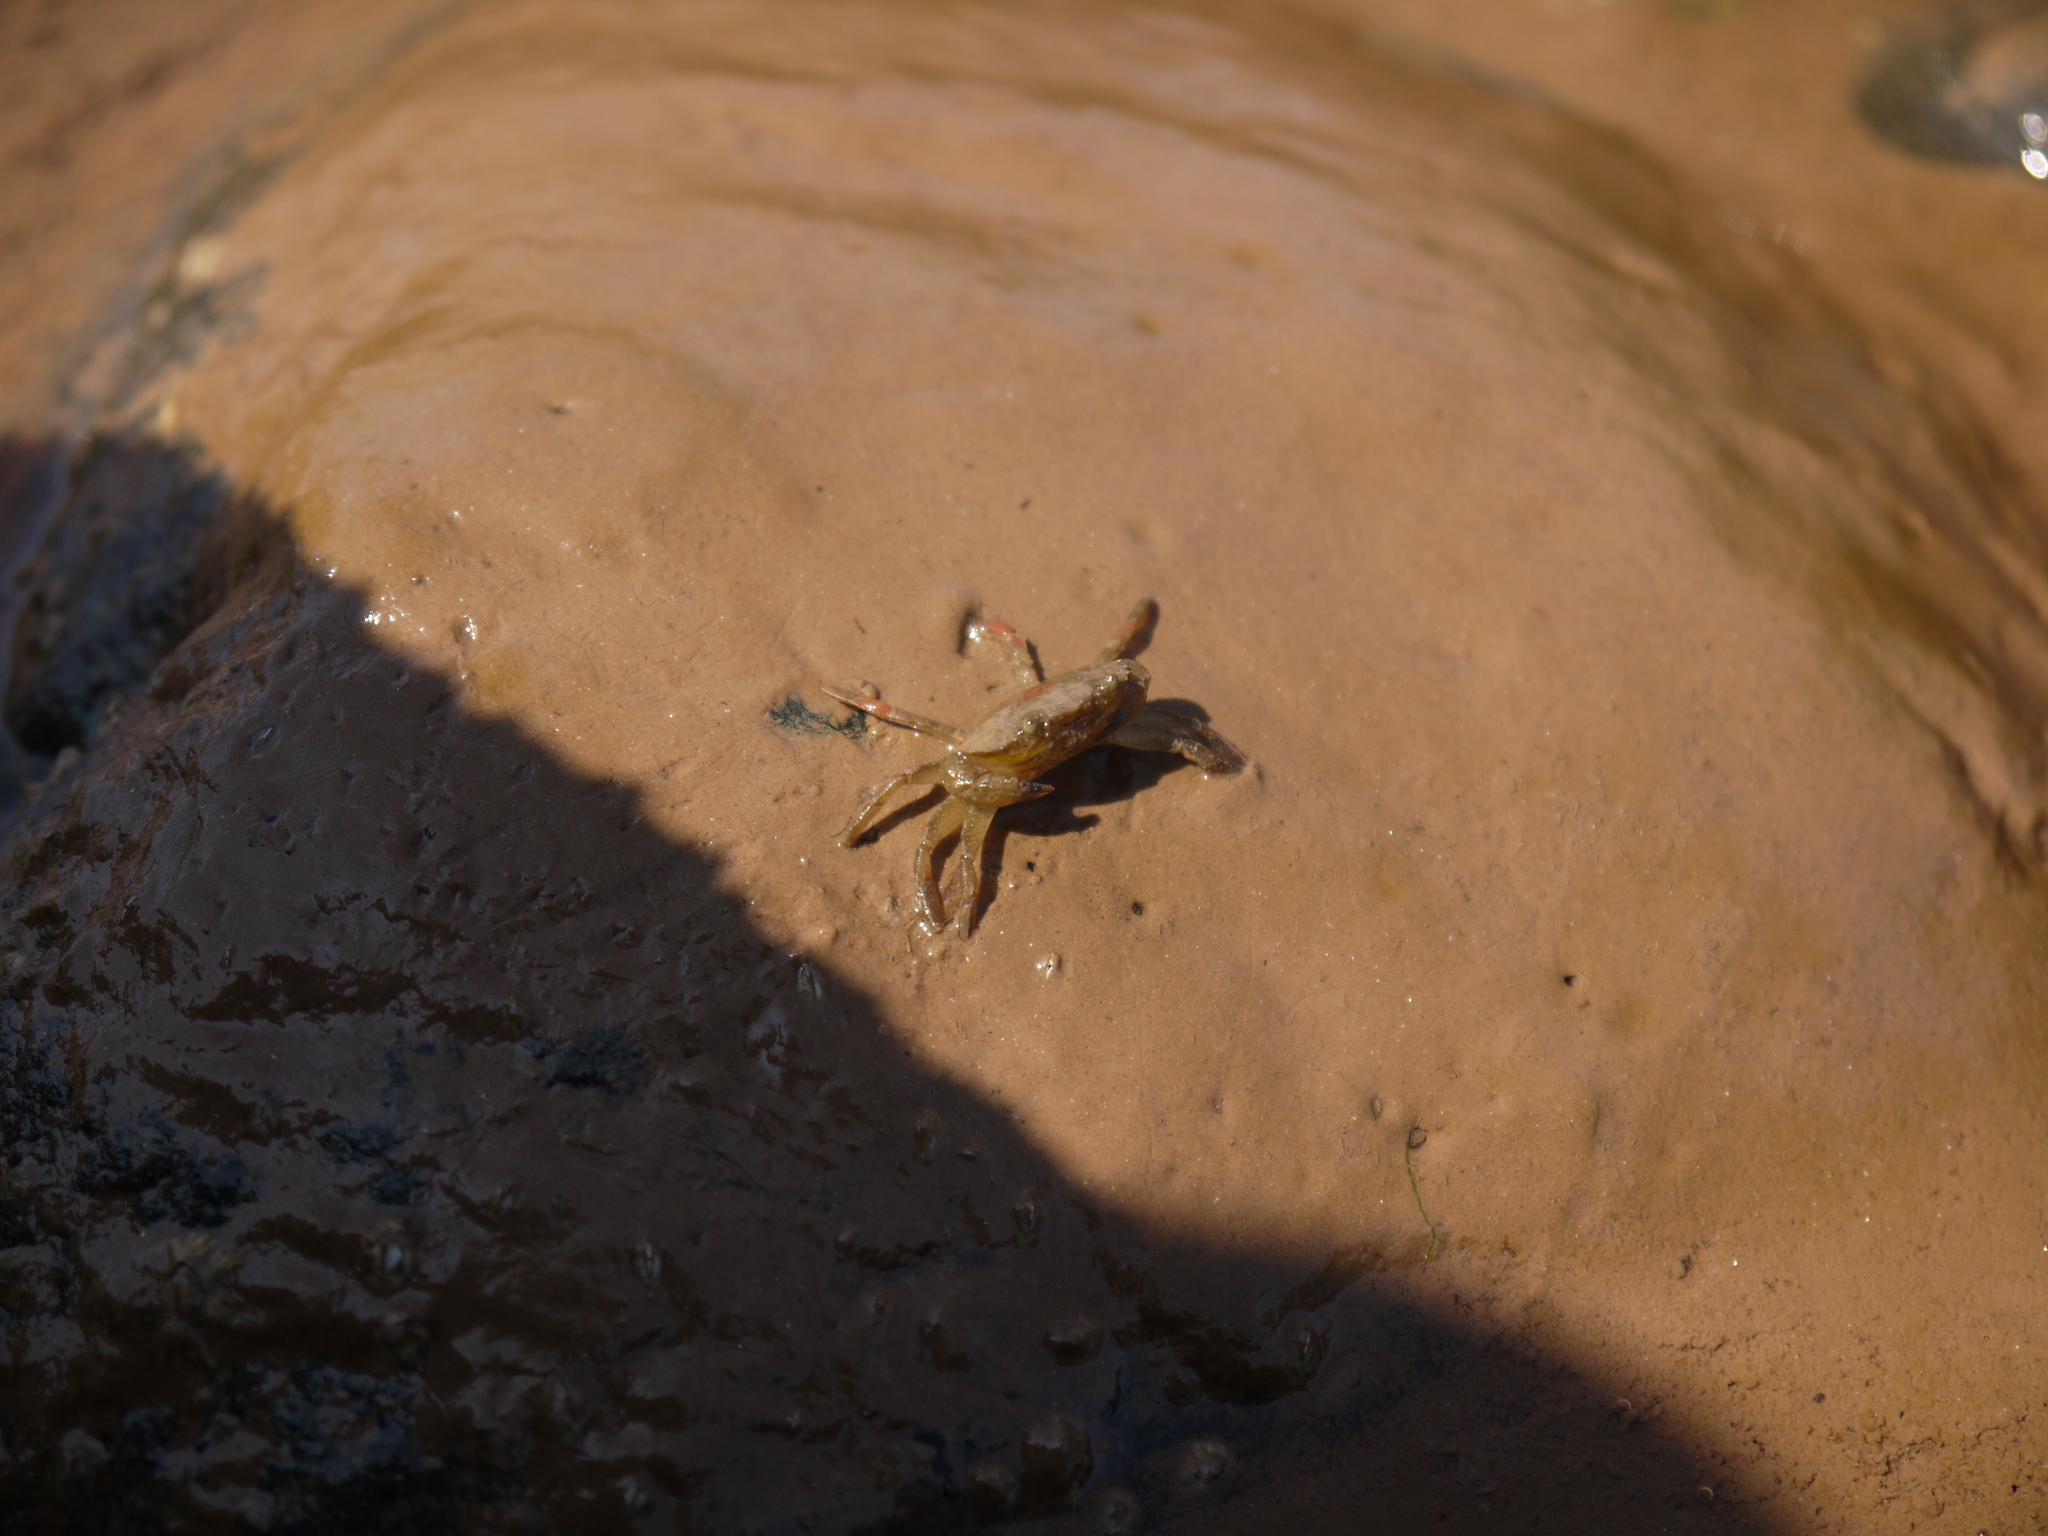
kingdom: Animalia
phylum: Arthropoda
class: Malacostraca
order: Decapoda
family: Carcinidae
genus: Carcinus
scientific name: Carcinus maenas
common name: European green crab
